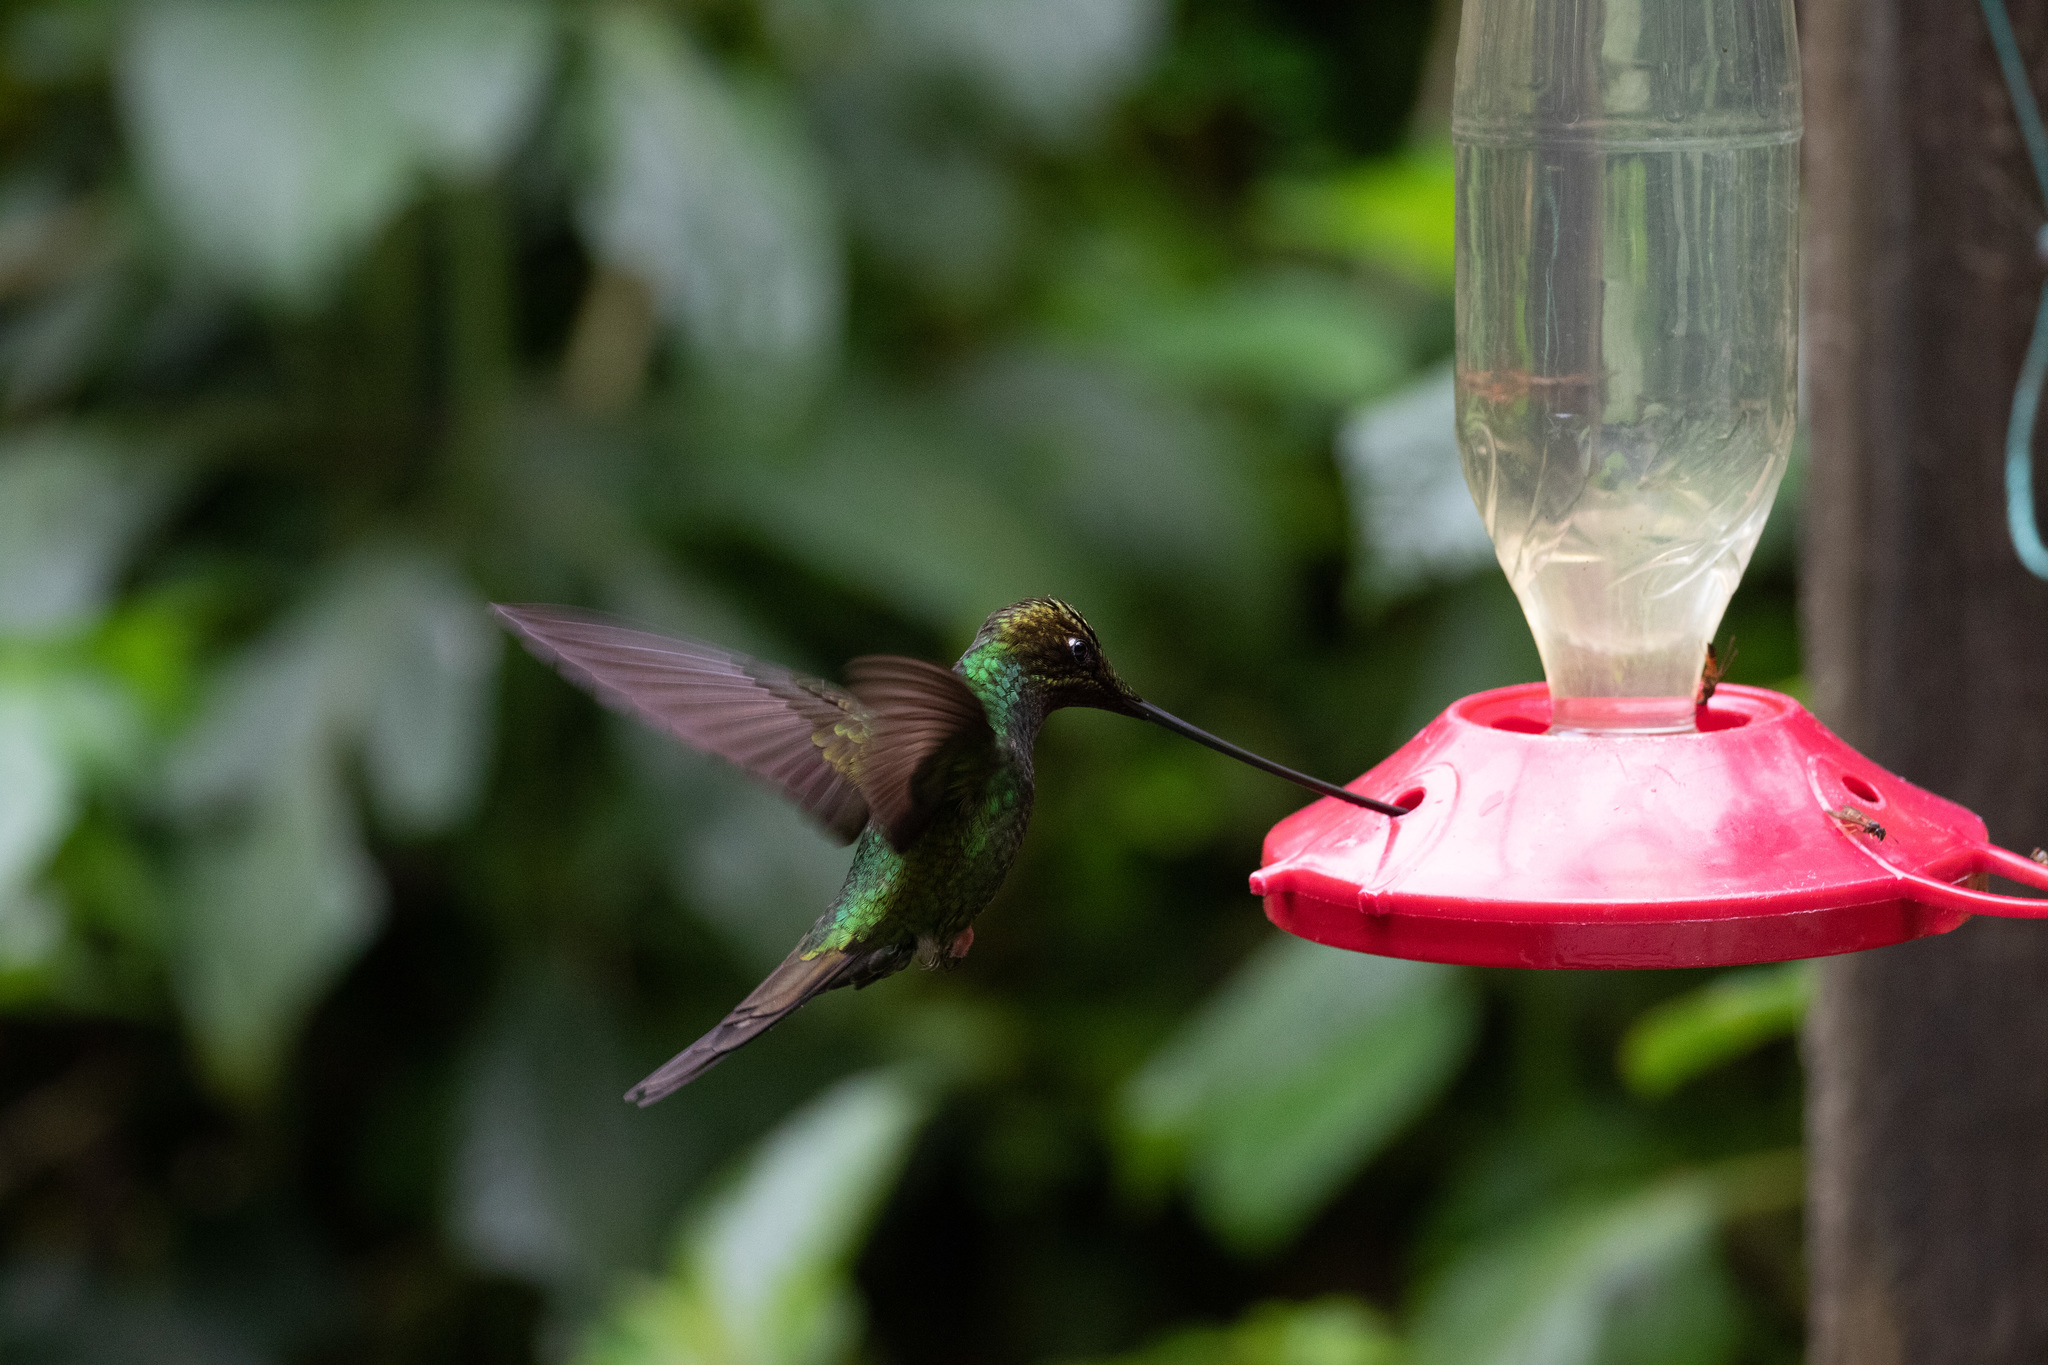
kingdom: Animalia
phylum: Chordata
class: Aves
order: Apodiformes
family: Trochilidae
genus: Ensifera
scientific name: Ensifera ensifera
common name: Sword-billed hummingbird
